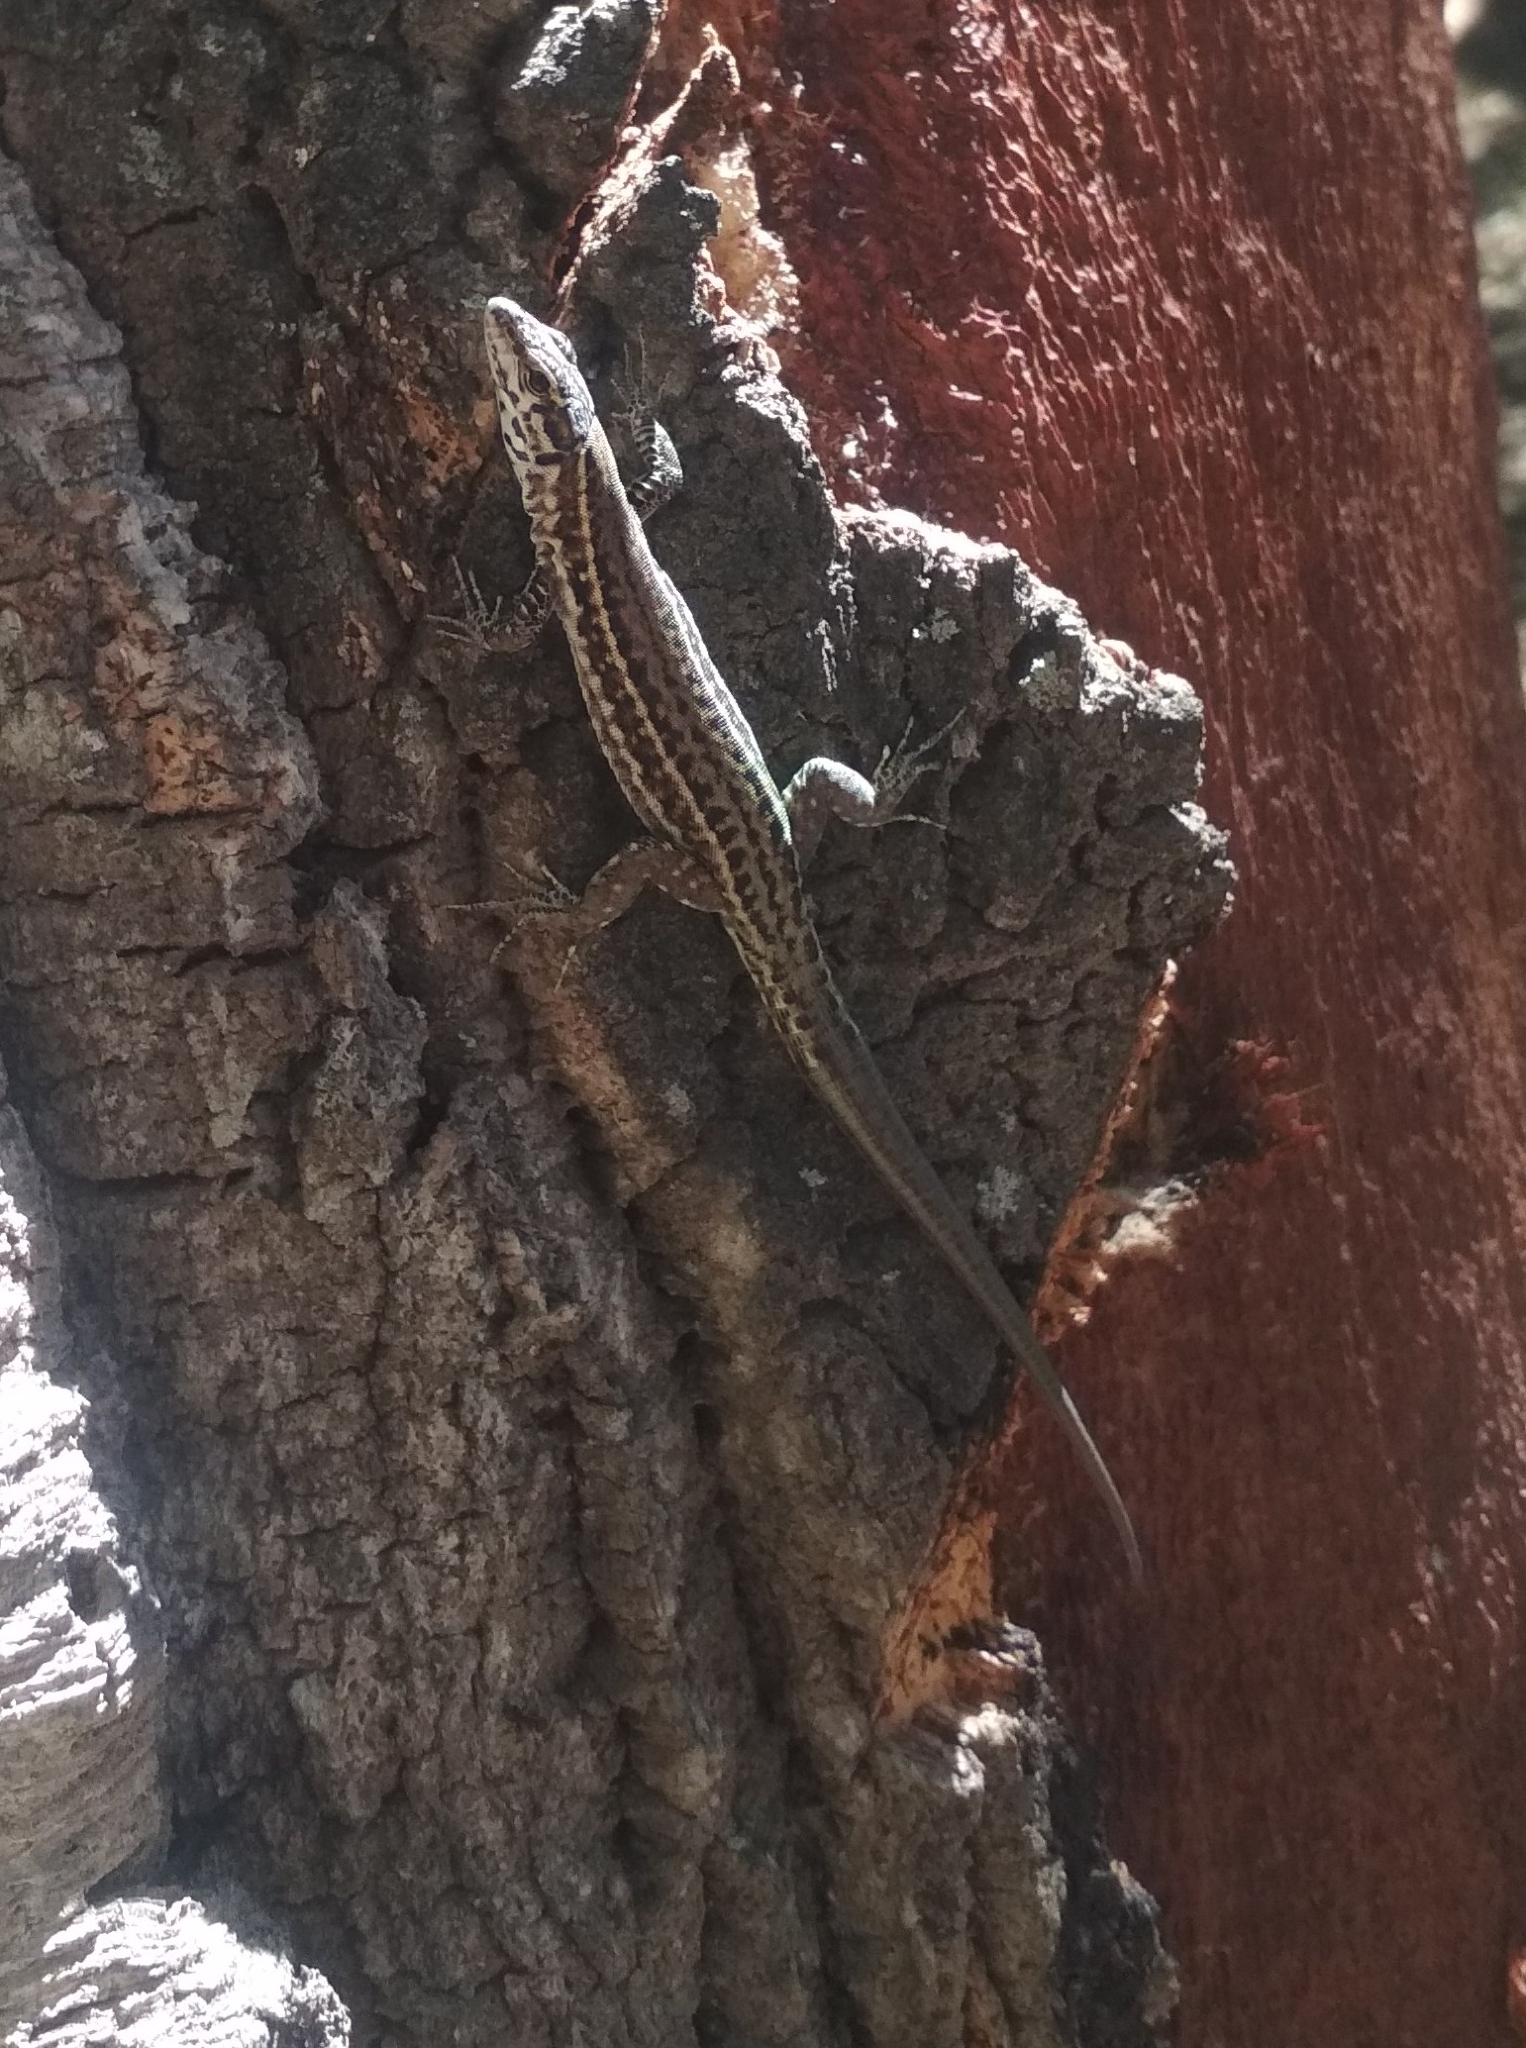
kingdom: Animalia
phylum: Chordata
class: Squamata
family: Lacertidae
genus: Podarcis
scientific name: Podarcis tiliguerta
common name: Tyrrhenian wall lizard
